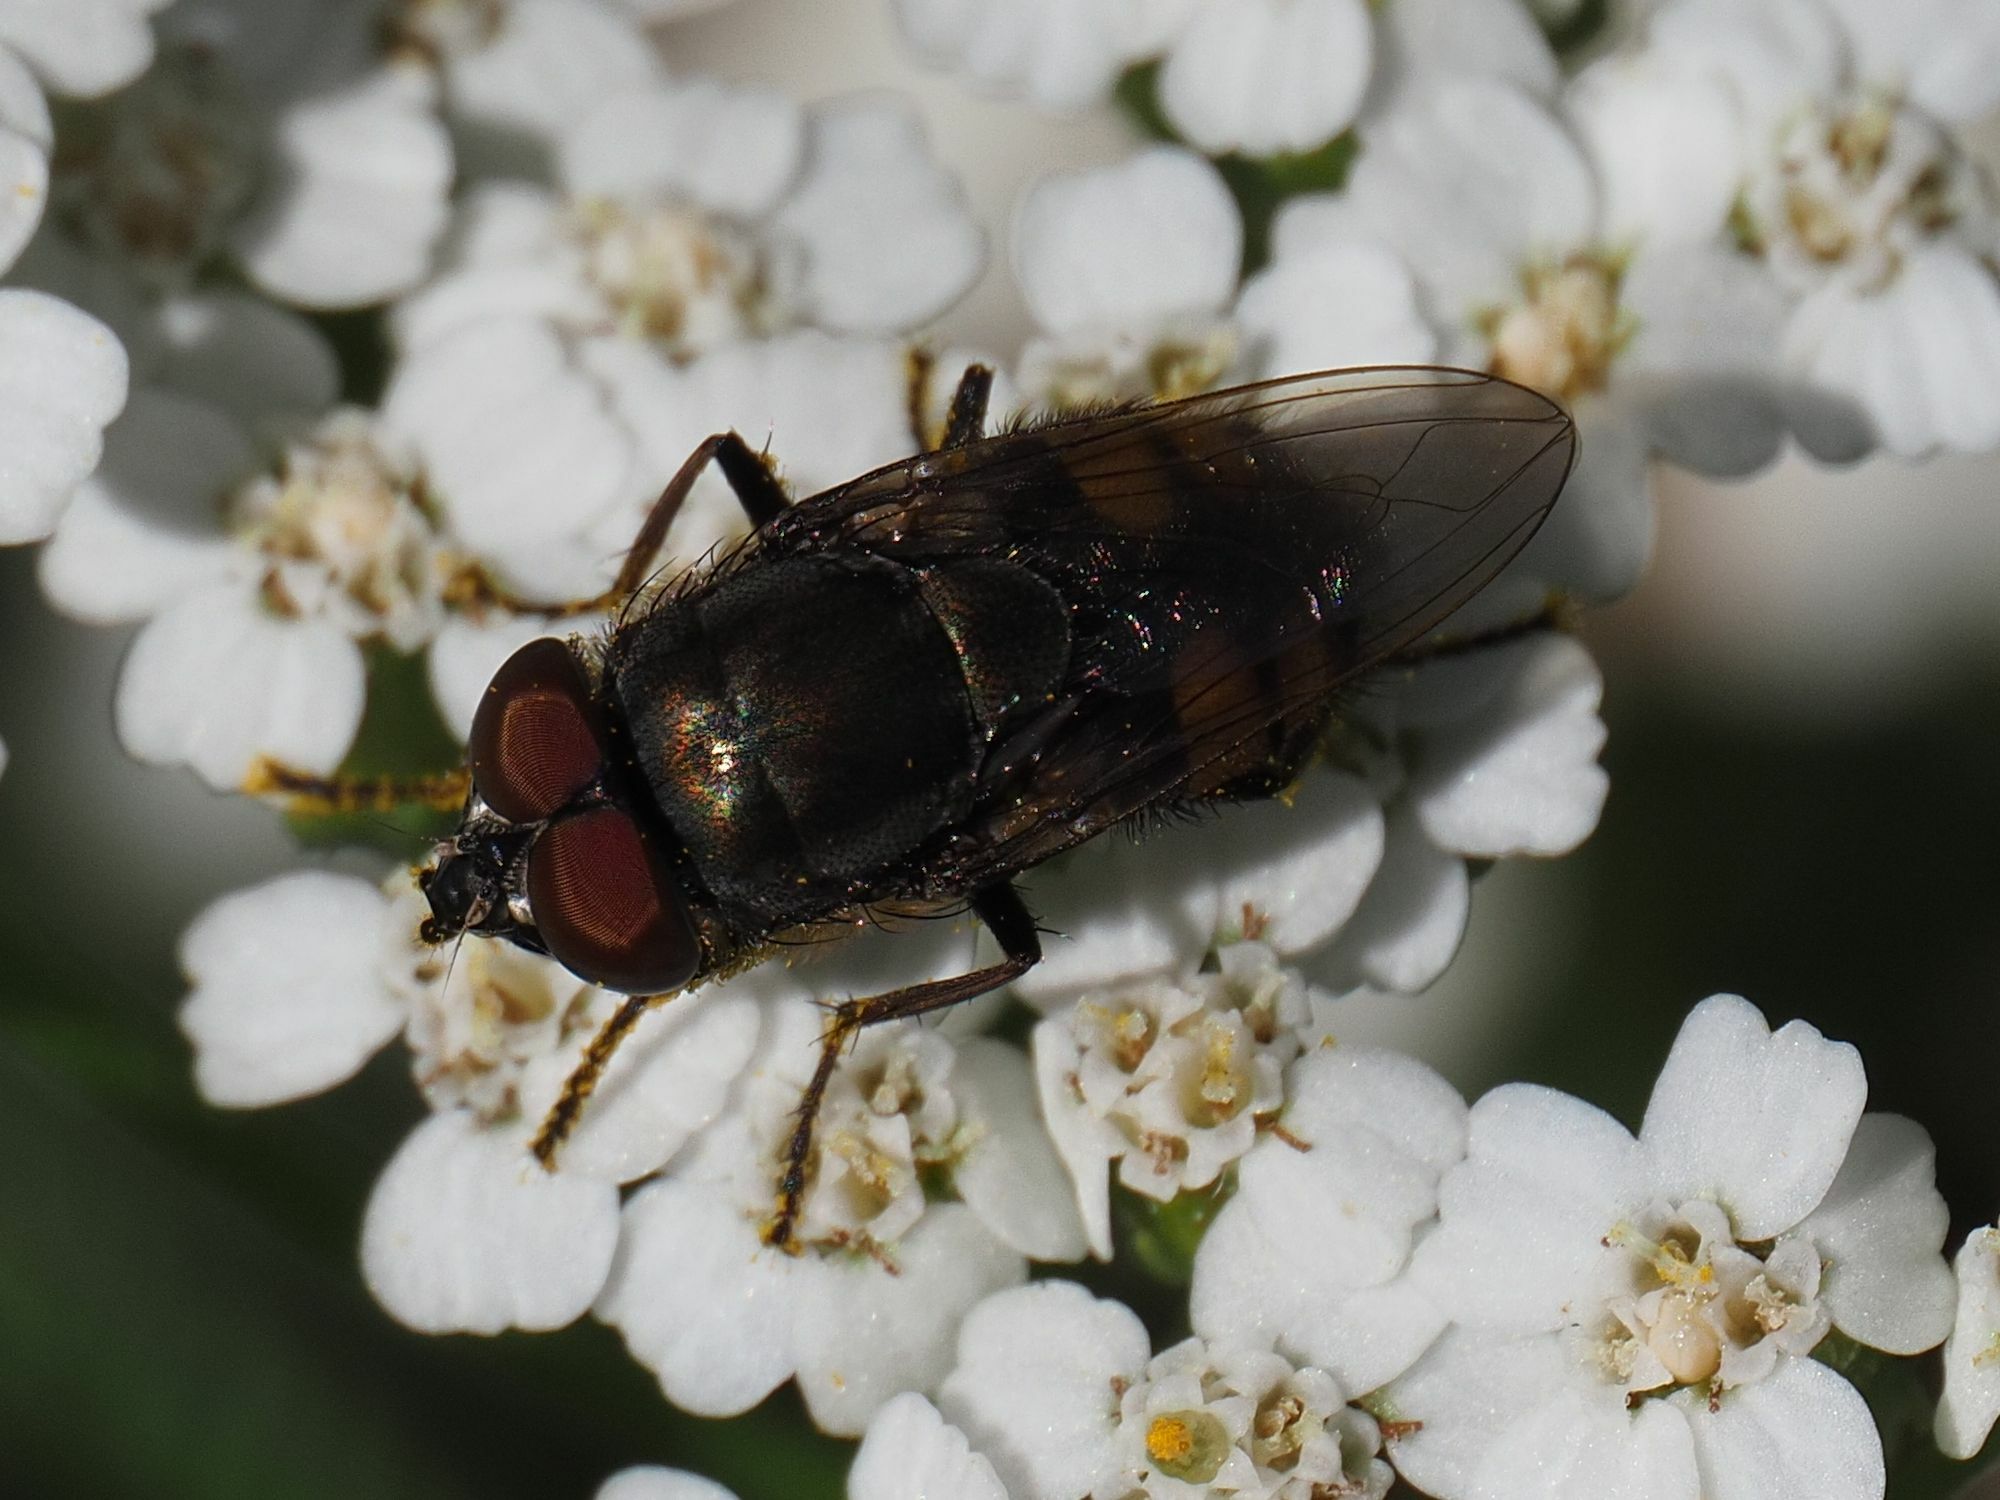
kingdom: Animalia
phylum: Arthropoda
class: Insecta
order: Diptera
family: Calliphoridae
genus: Stomorhina
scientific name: Stomorhina lunata
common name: Locust blowfly
